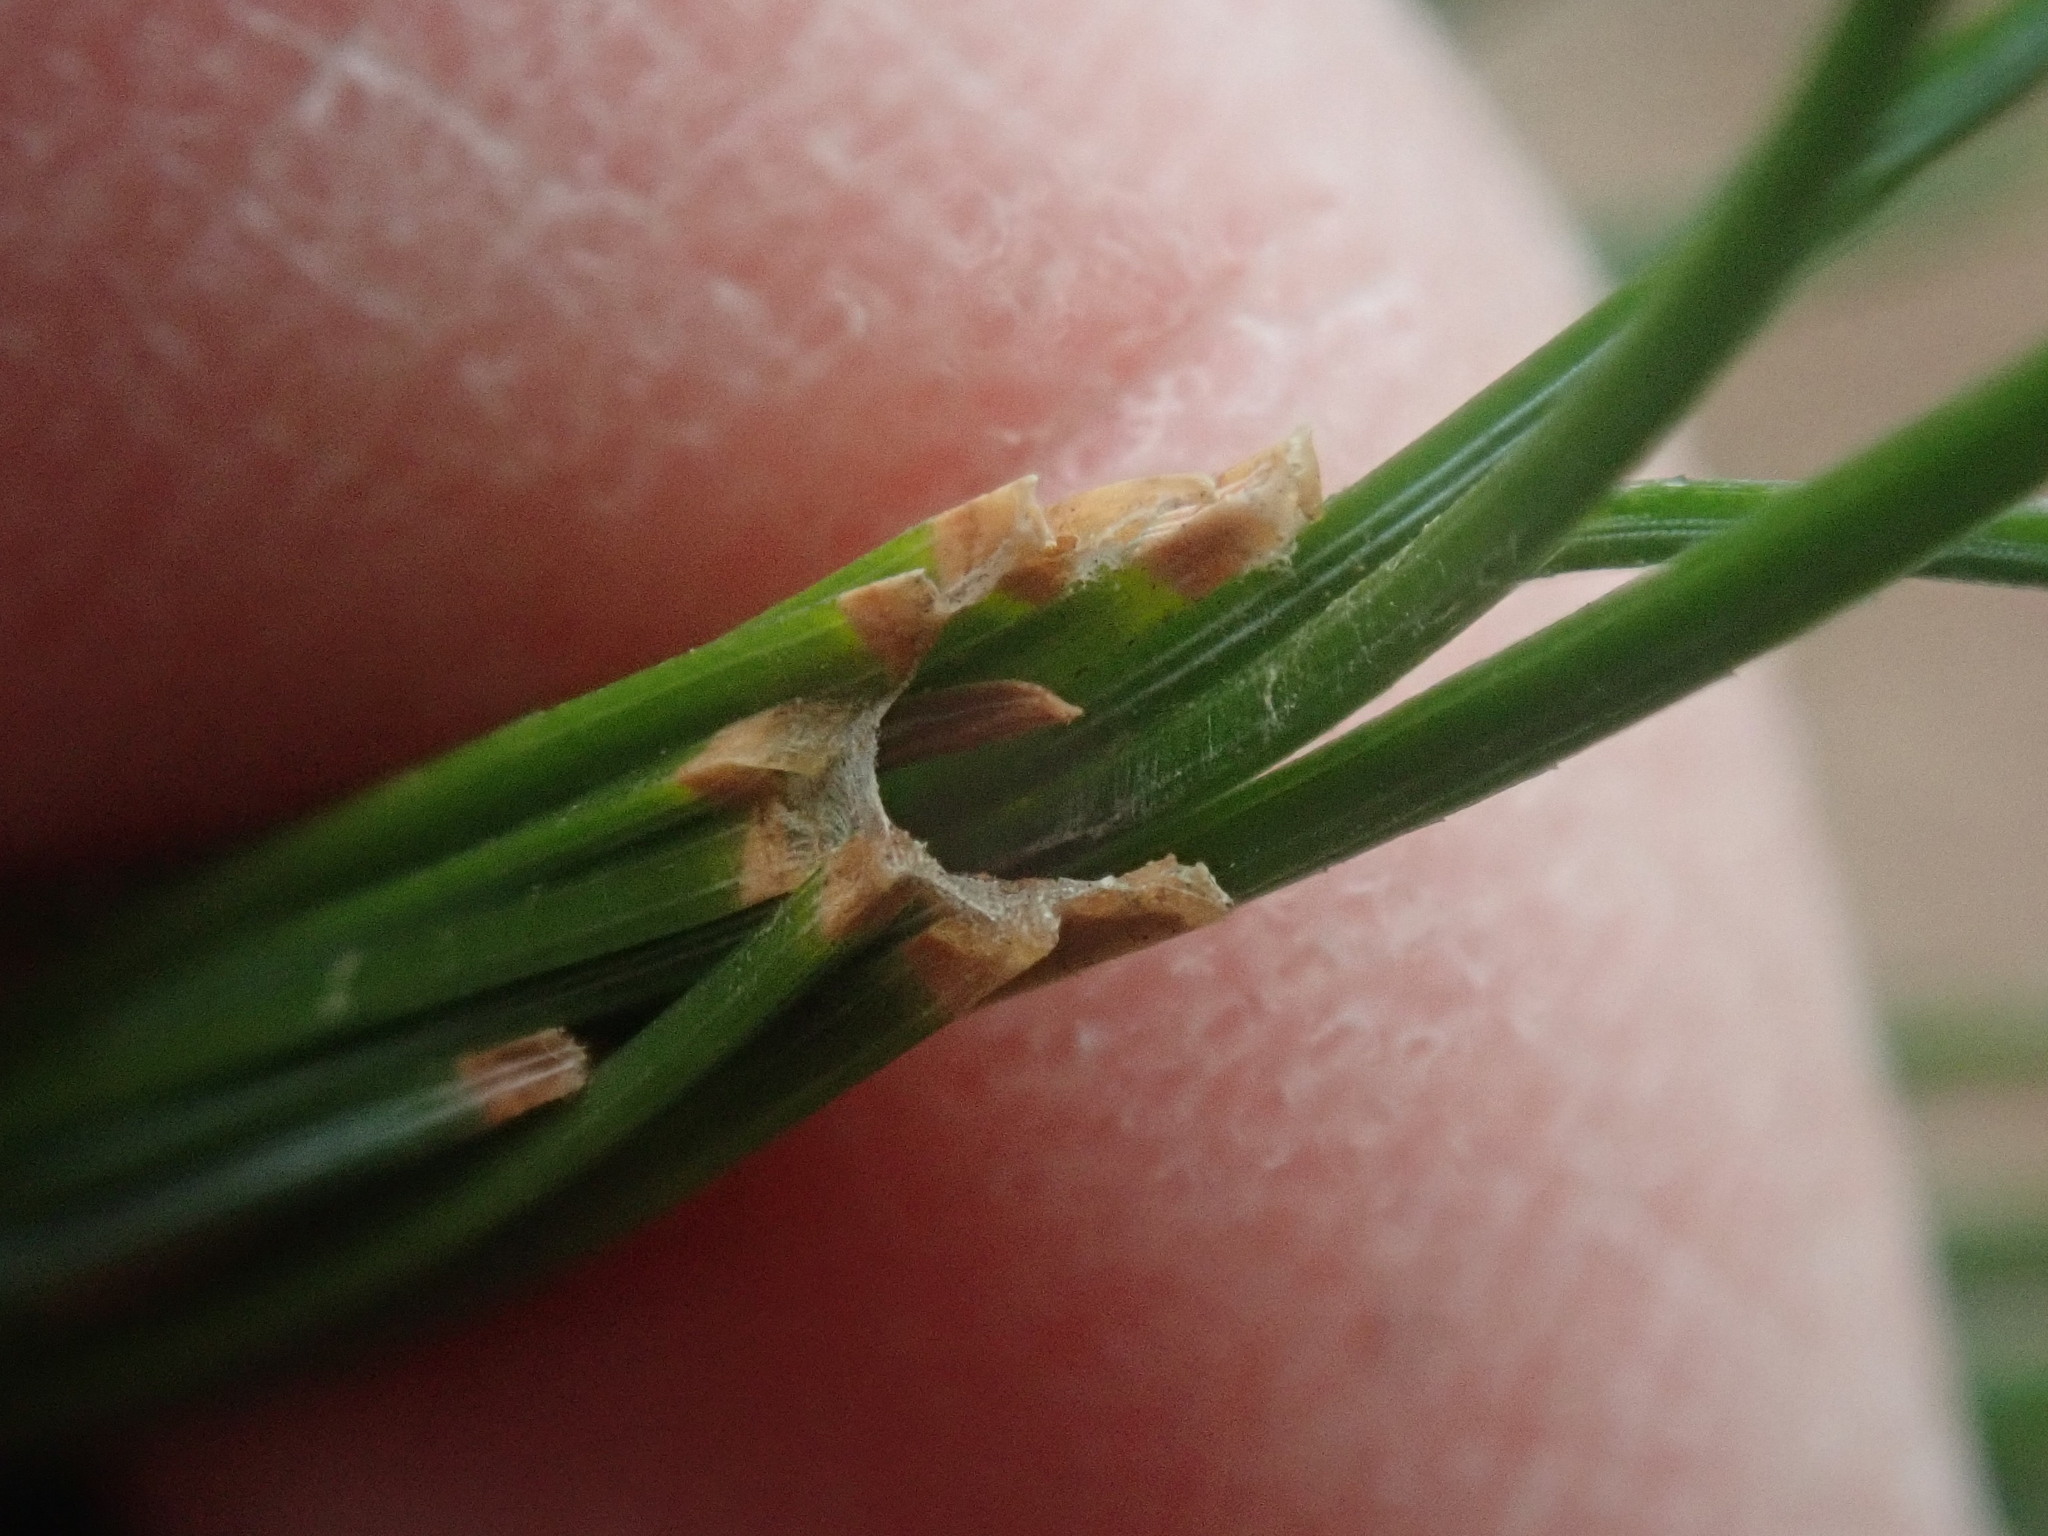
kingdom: Animalia
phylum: Arthropoda
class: Insecta
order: Lepidoptera
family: Tortricidae
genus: Argyrotaenia
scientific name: Argyrotaenia pinatubana
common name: Pine tube moth
